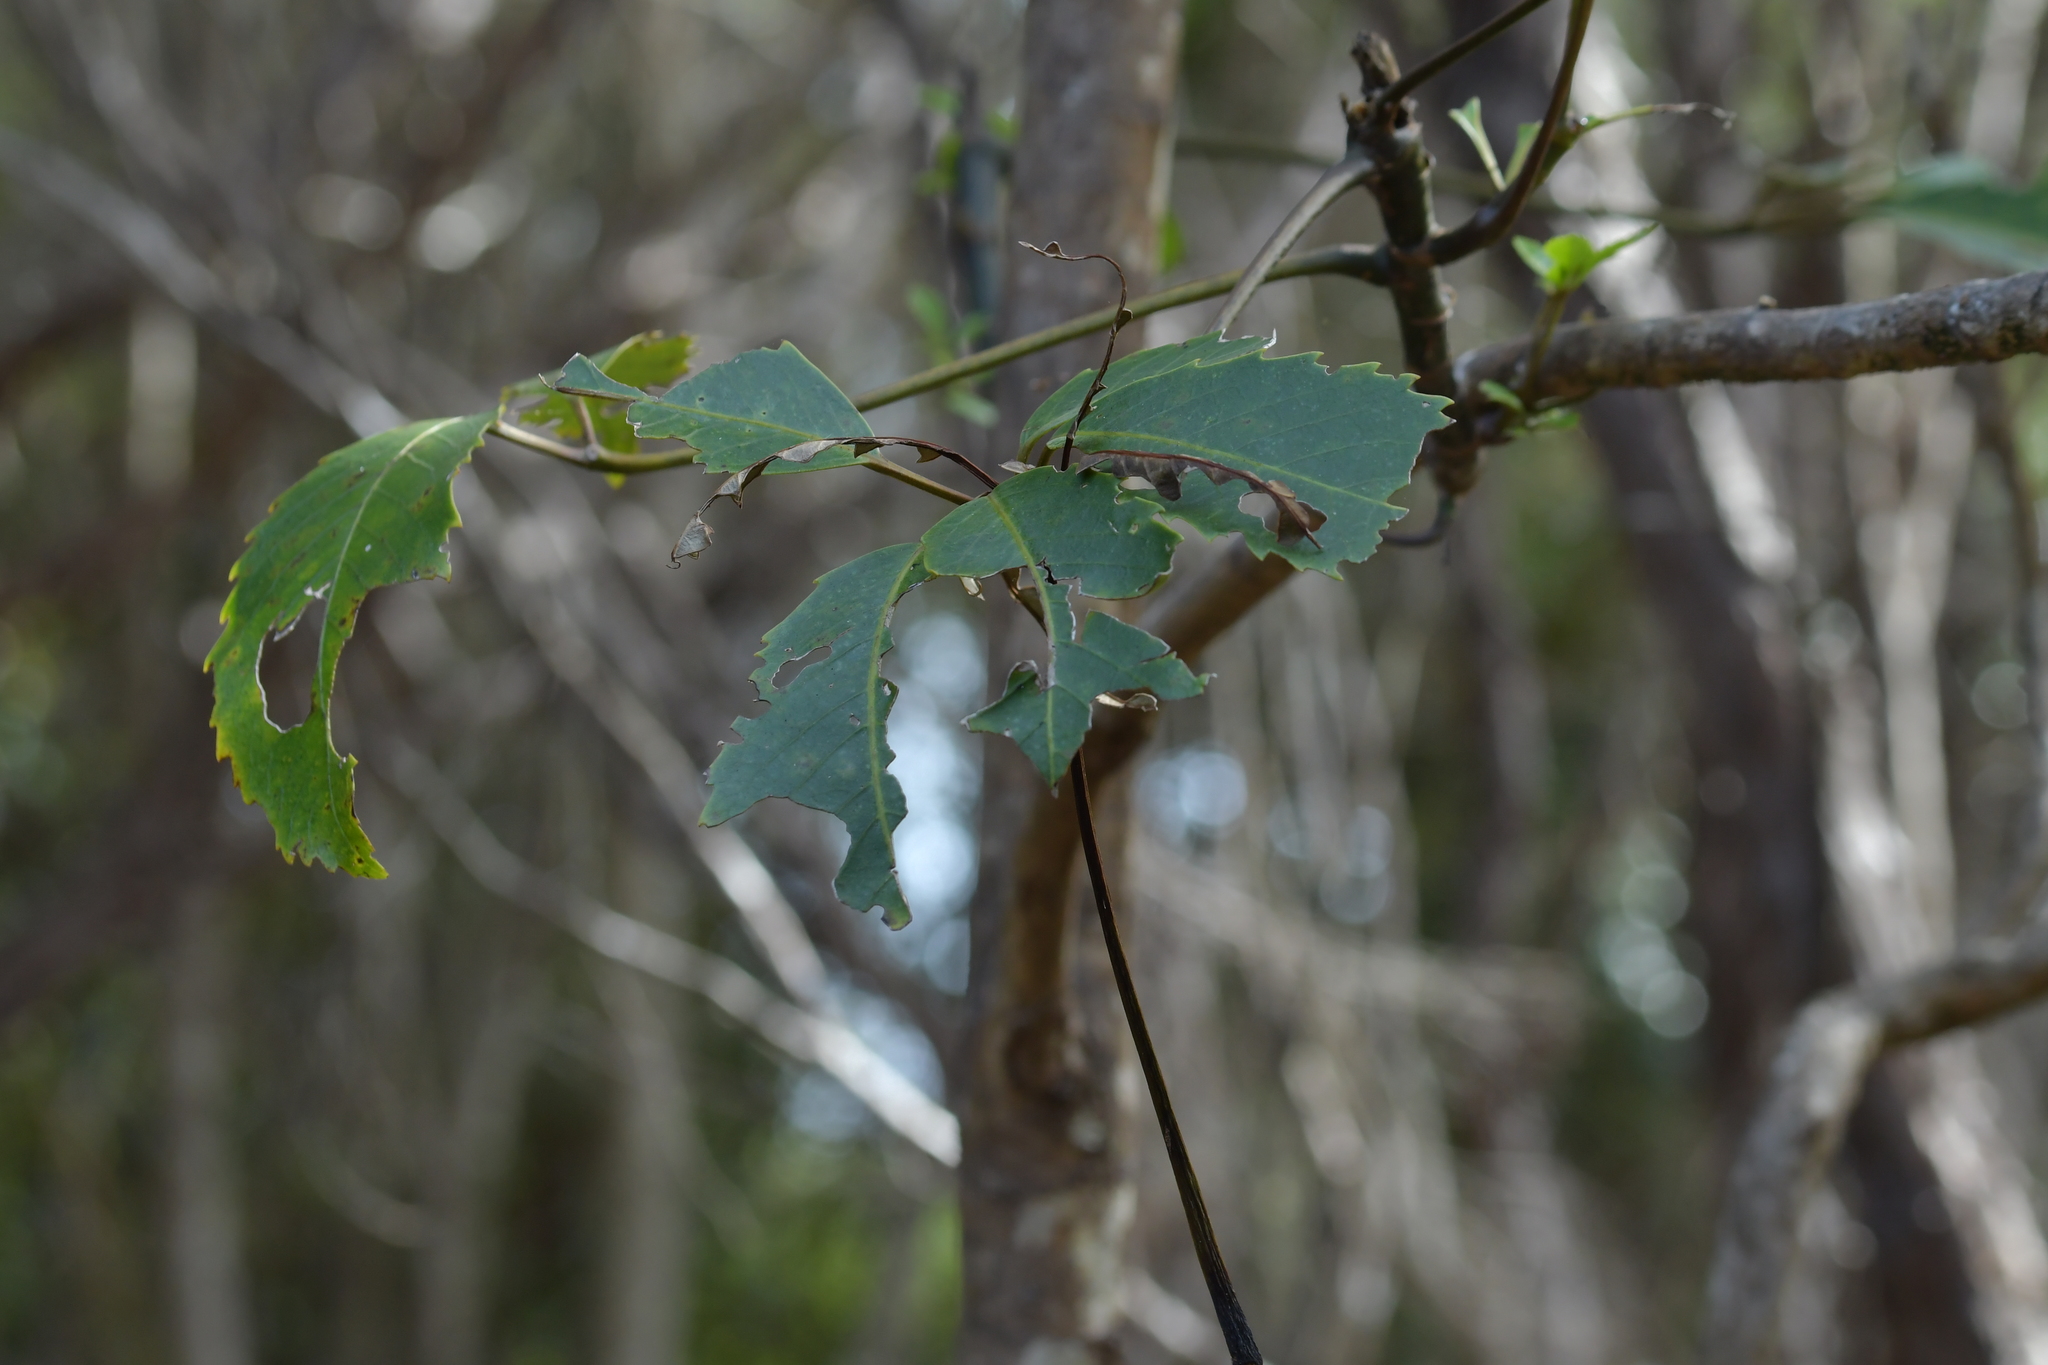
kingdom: Plantae
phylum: Tracheophyta
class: Magnoliopsida
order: Apiales
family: Araliaceae
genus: Neopanax
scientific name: Neopanax arboreus
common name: Five-fingers
